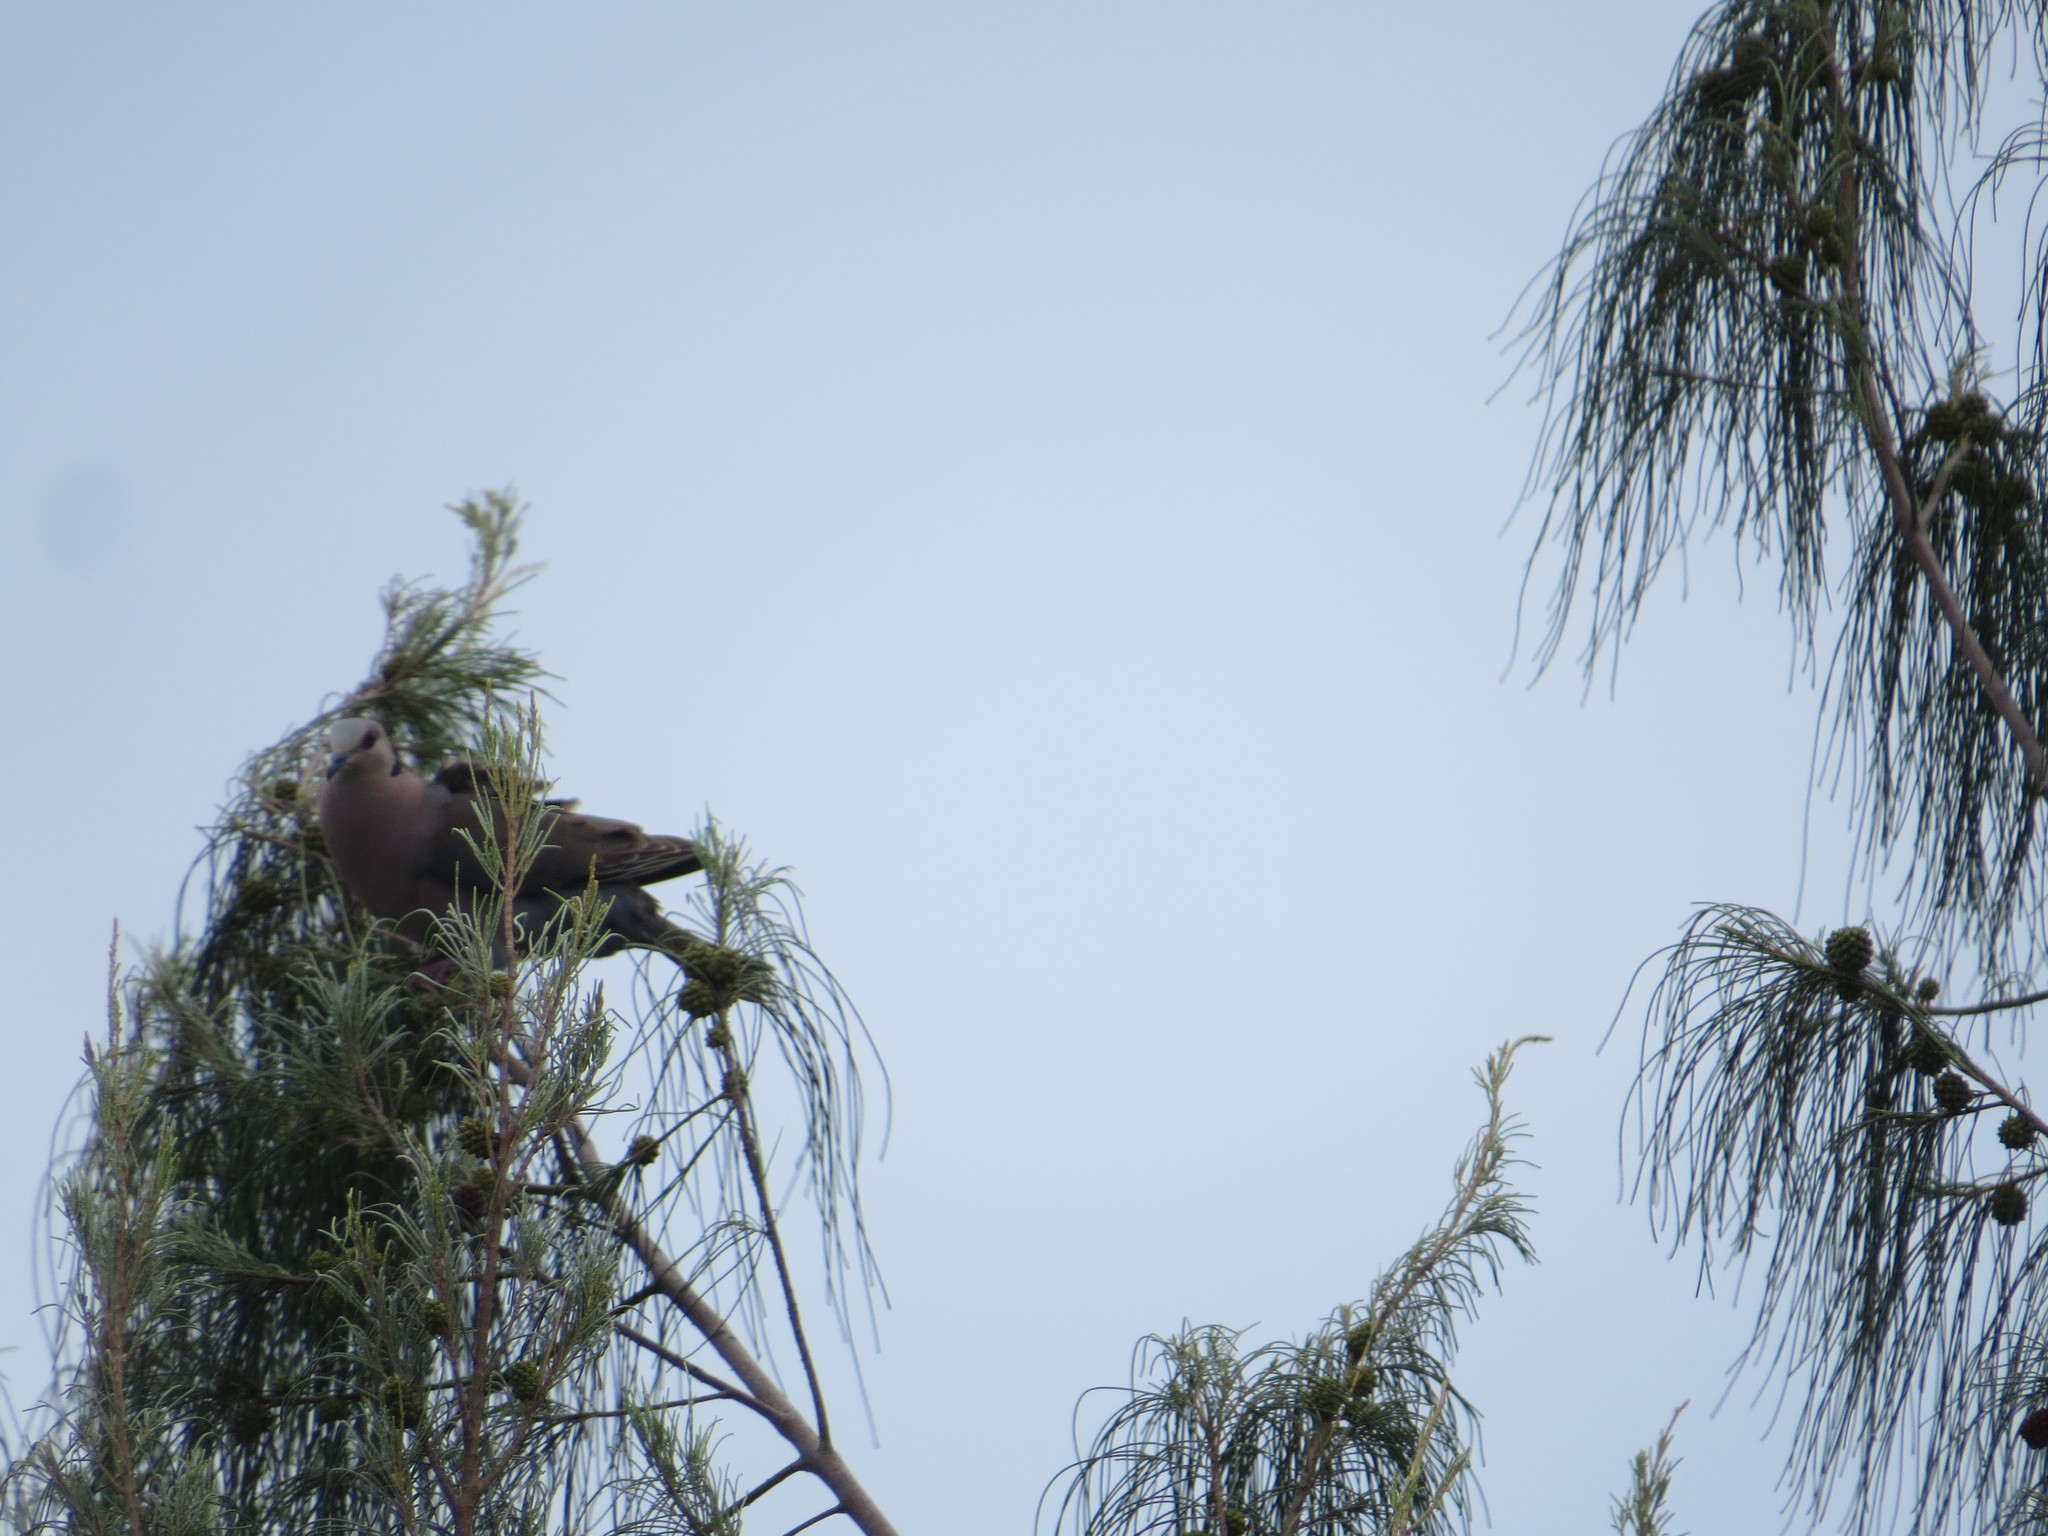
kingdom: Animalia
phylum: Chordata
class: Aves
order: Columbiformes
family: Columbidae
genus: Streptopelia
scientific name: Streptopelia semitorquata
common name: Red-eyed dove
